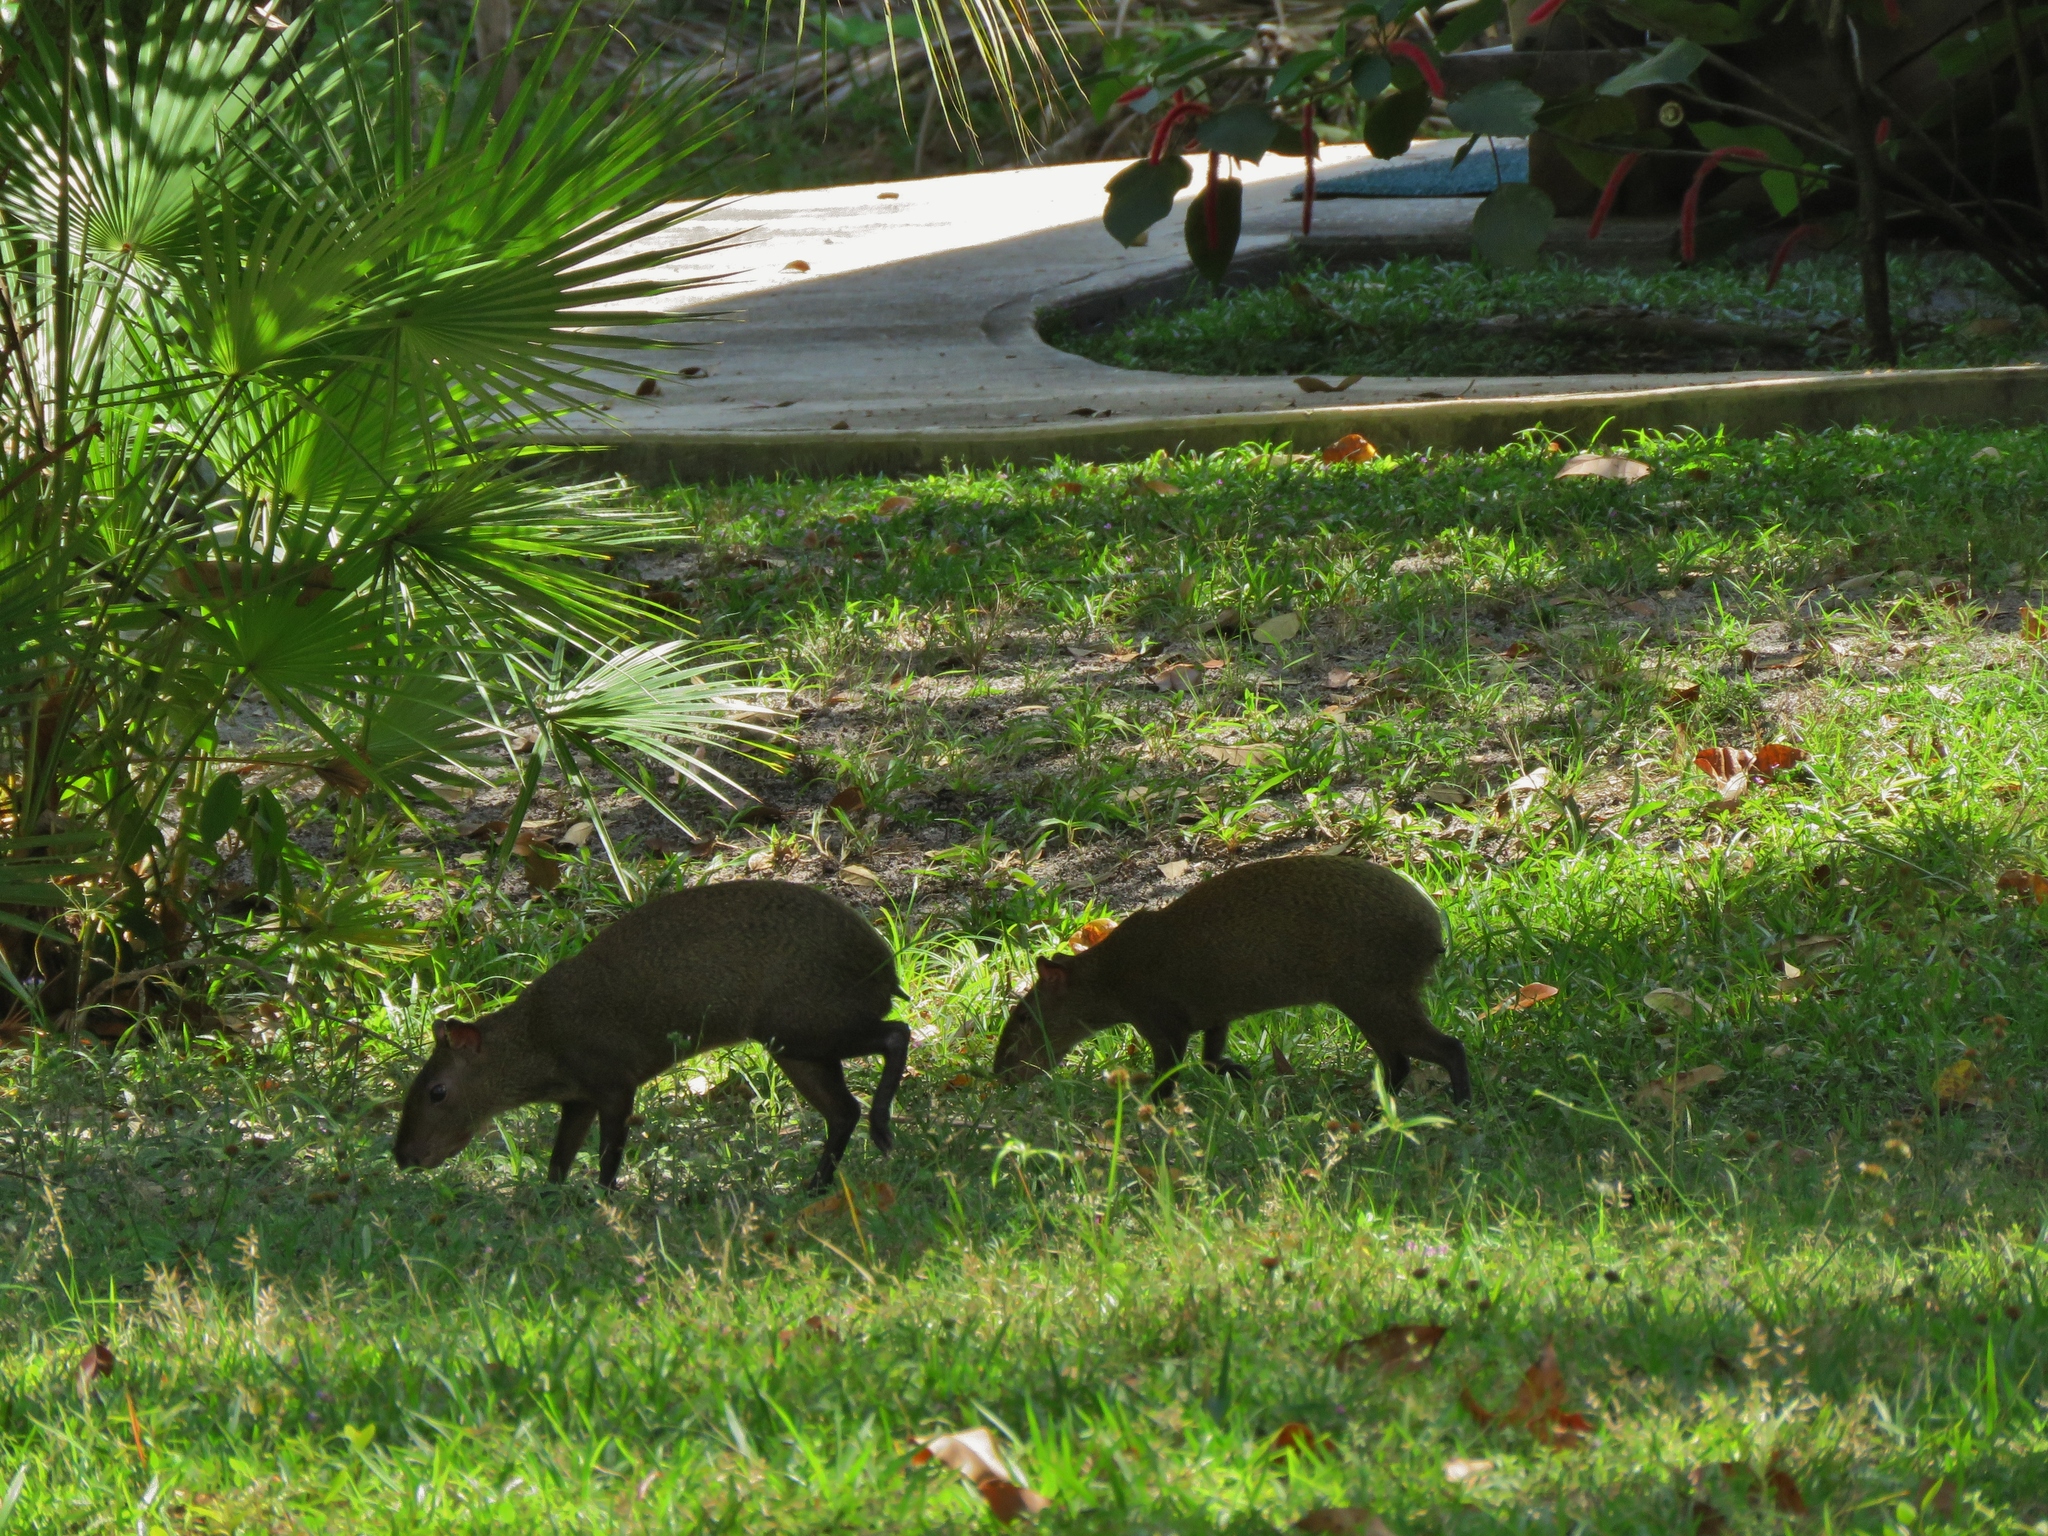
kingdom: Animalia
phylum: Chordata
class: Mammalia
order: Rodentia
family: Dasyproctidae
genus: Dasyprocta
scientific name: Dasyprocta punctata
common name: Central american agouti
